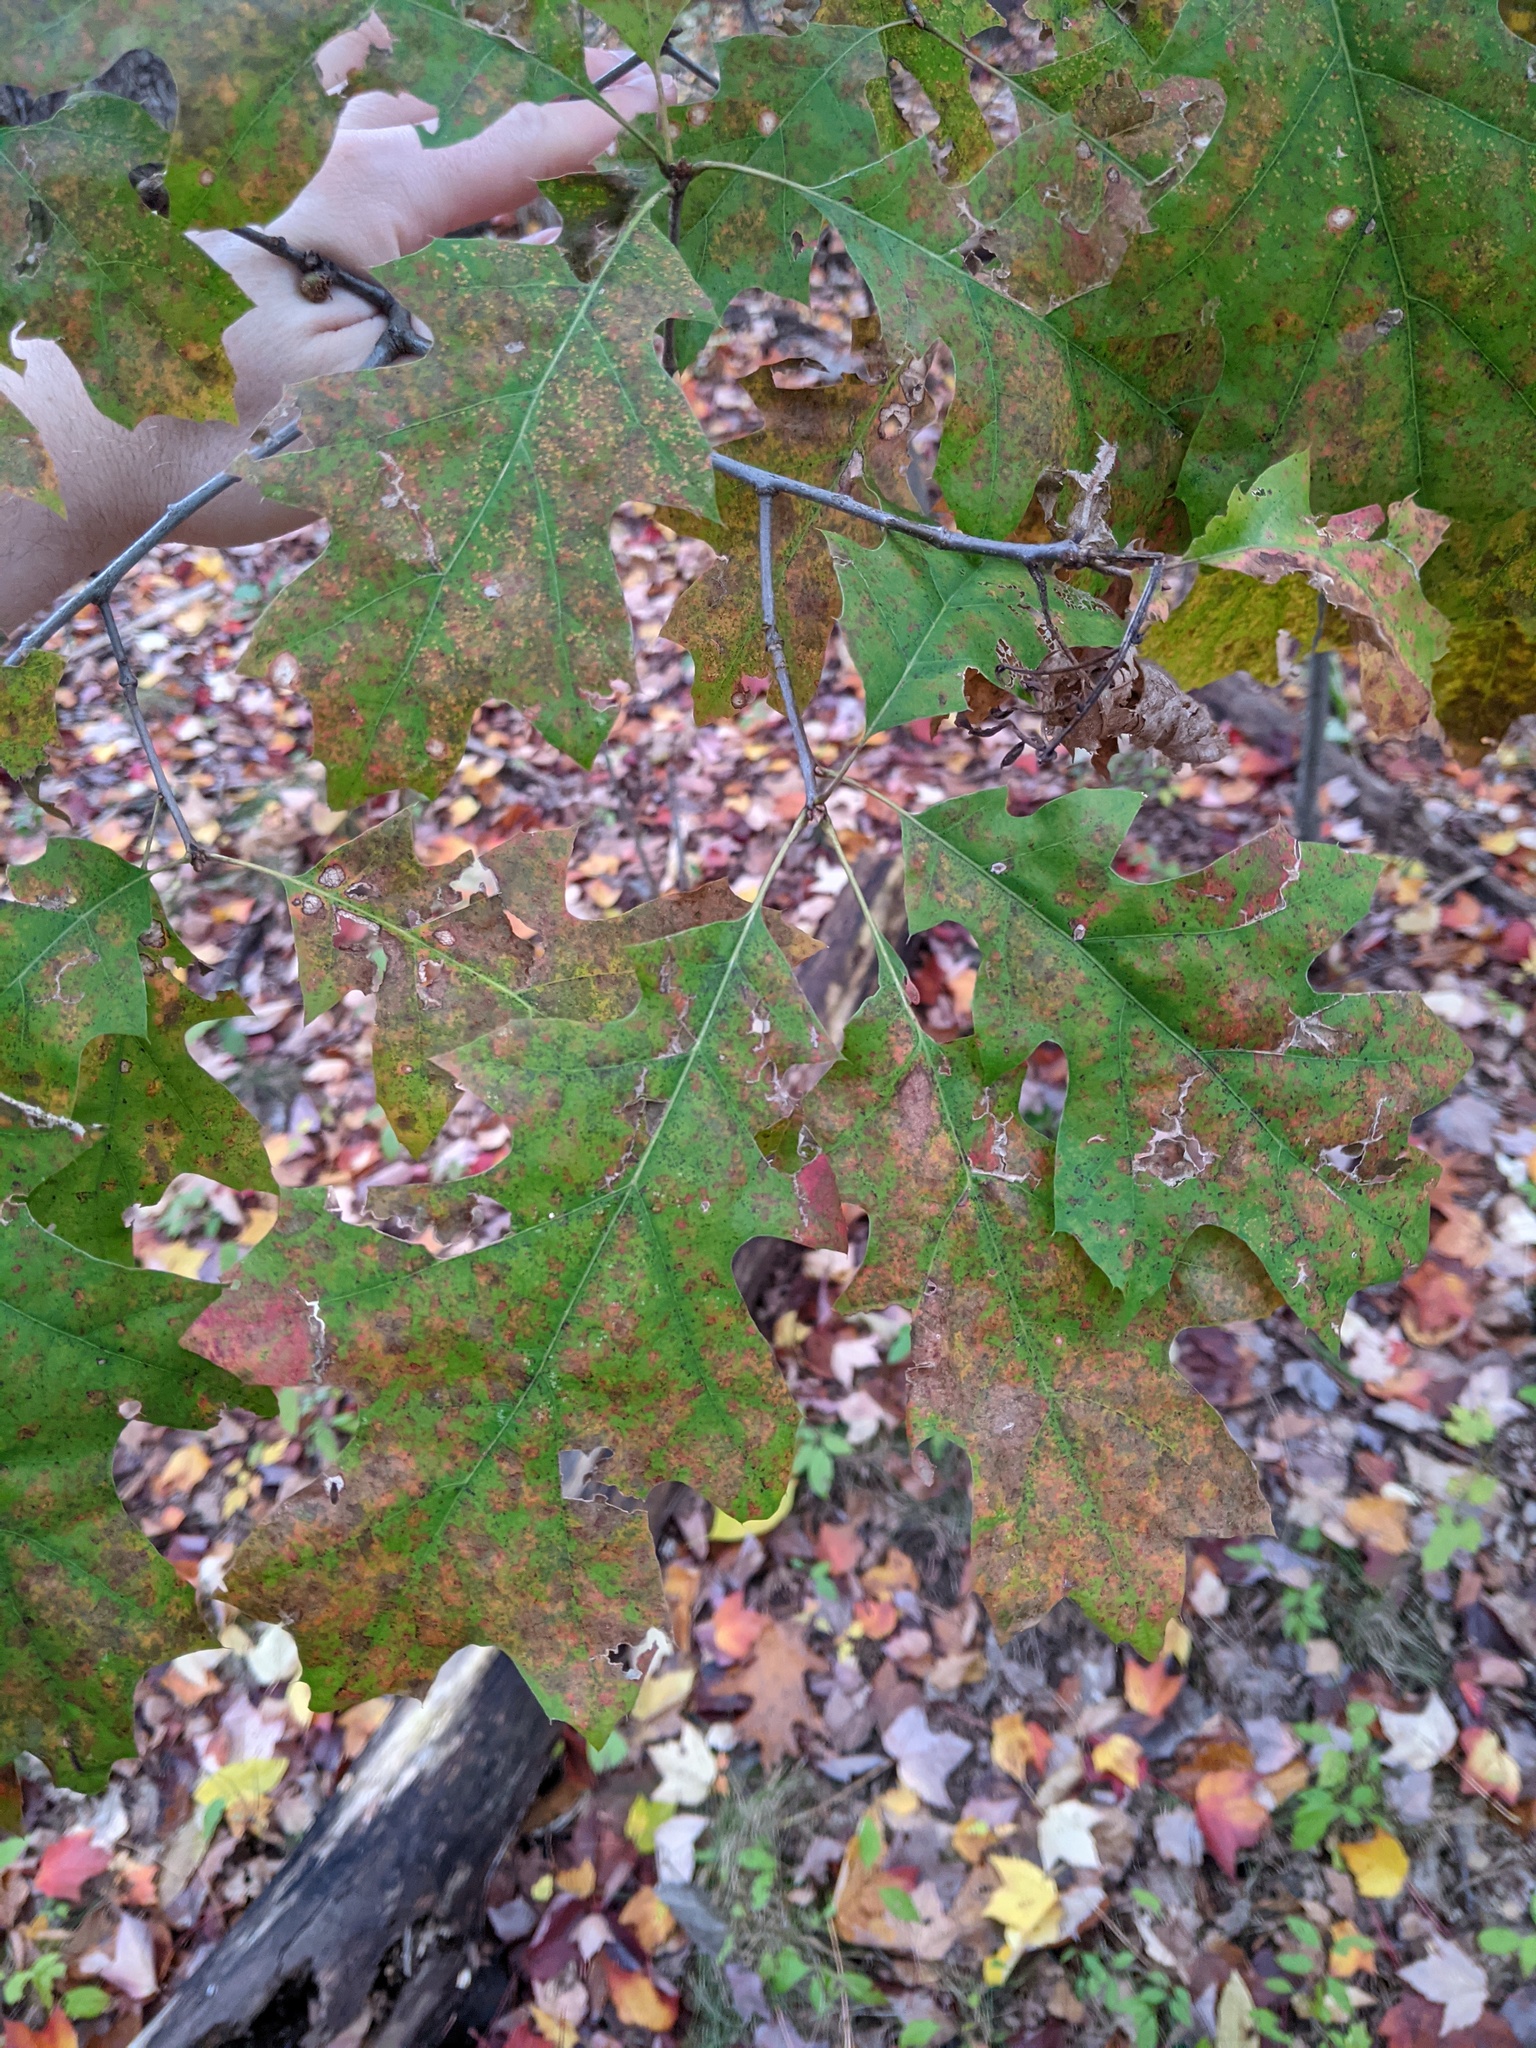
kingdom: Plantae
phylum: Tracheophyta
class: Magnoliopsida
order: Fagales
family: Fagaceae
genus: Quercus
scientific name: Quercus rubra
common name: Red oak
